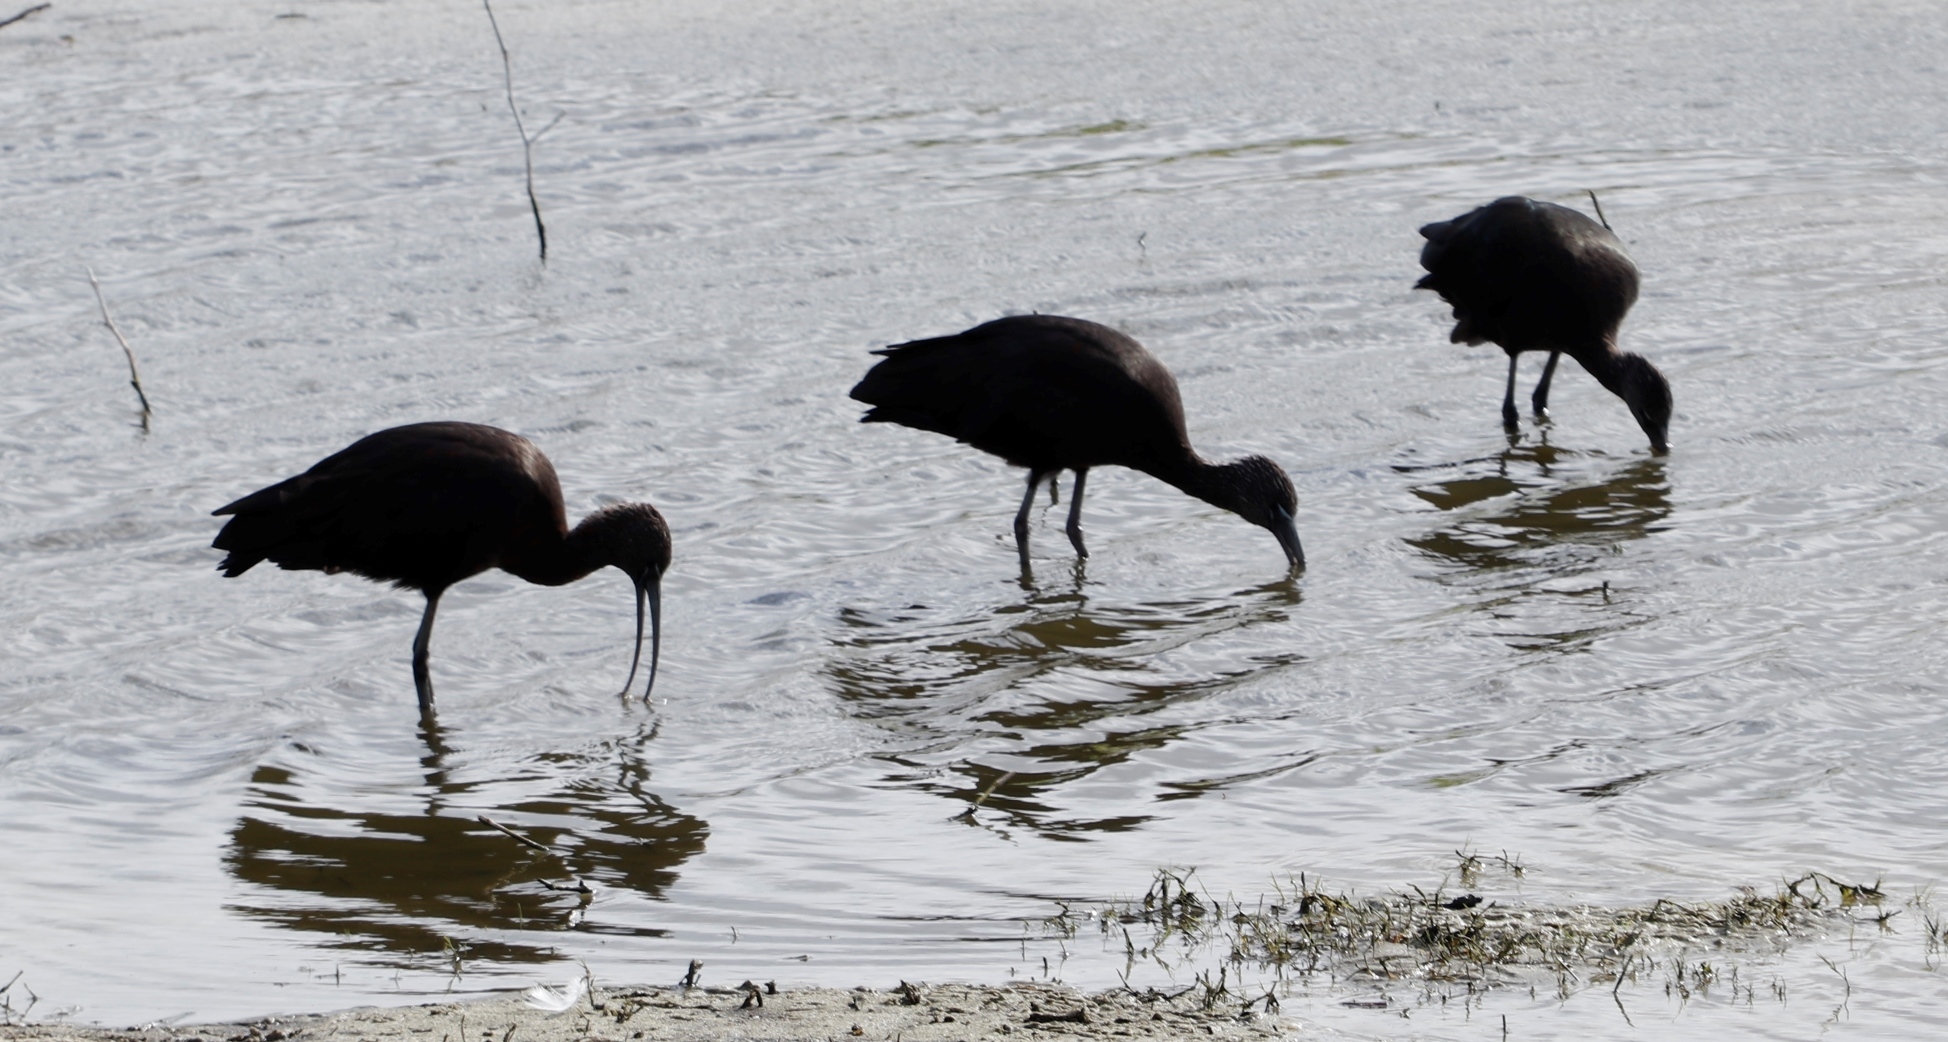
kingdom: Animalia
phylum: Chordata
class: Aves
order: Pelecaniformes
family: Threskiornithidae
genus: Plegadis
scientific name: Plegadis falcinellus
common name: Glossy ibis
